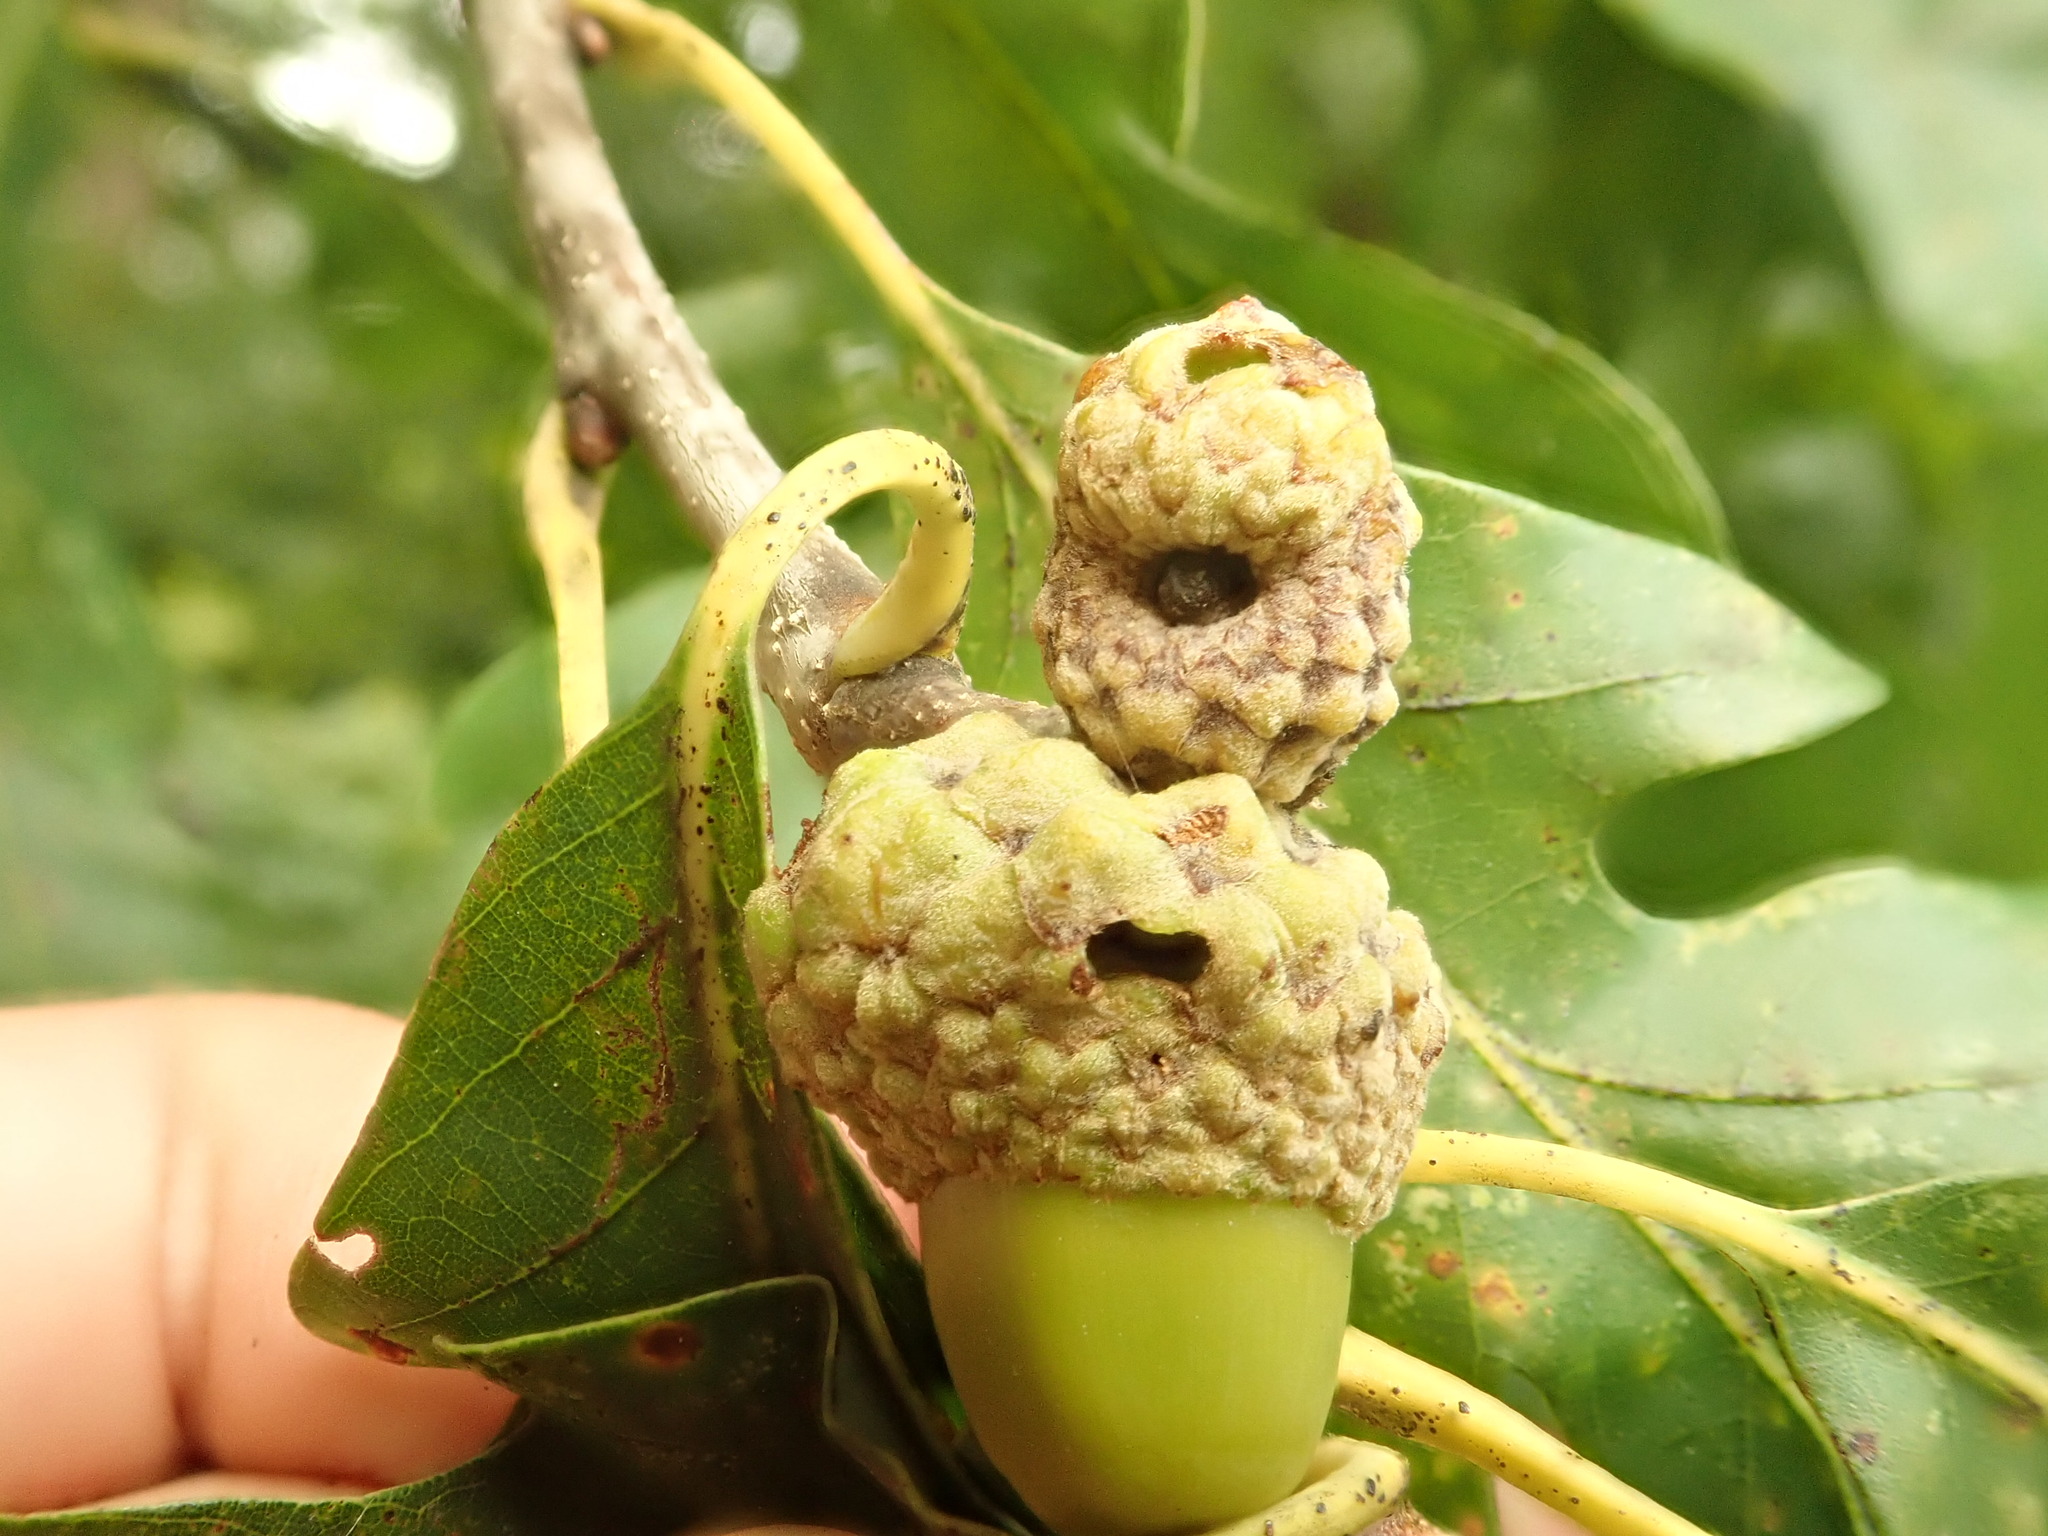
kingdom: Animalia
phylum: Arthropoda
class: Insecta
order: Hymenoptera
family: Cynipidae
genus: Callirhytis
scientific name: Callirhytis glandium
